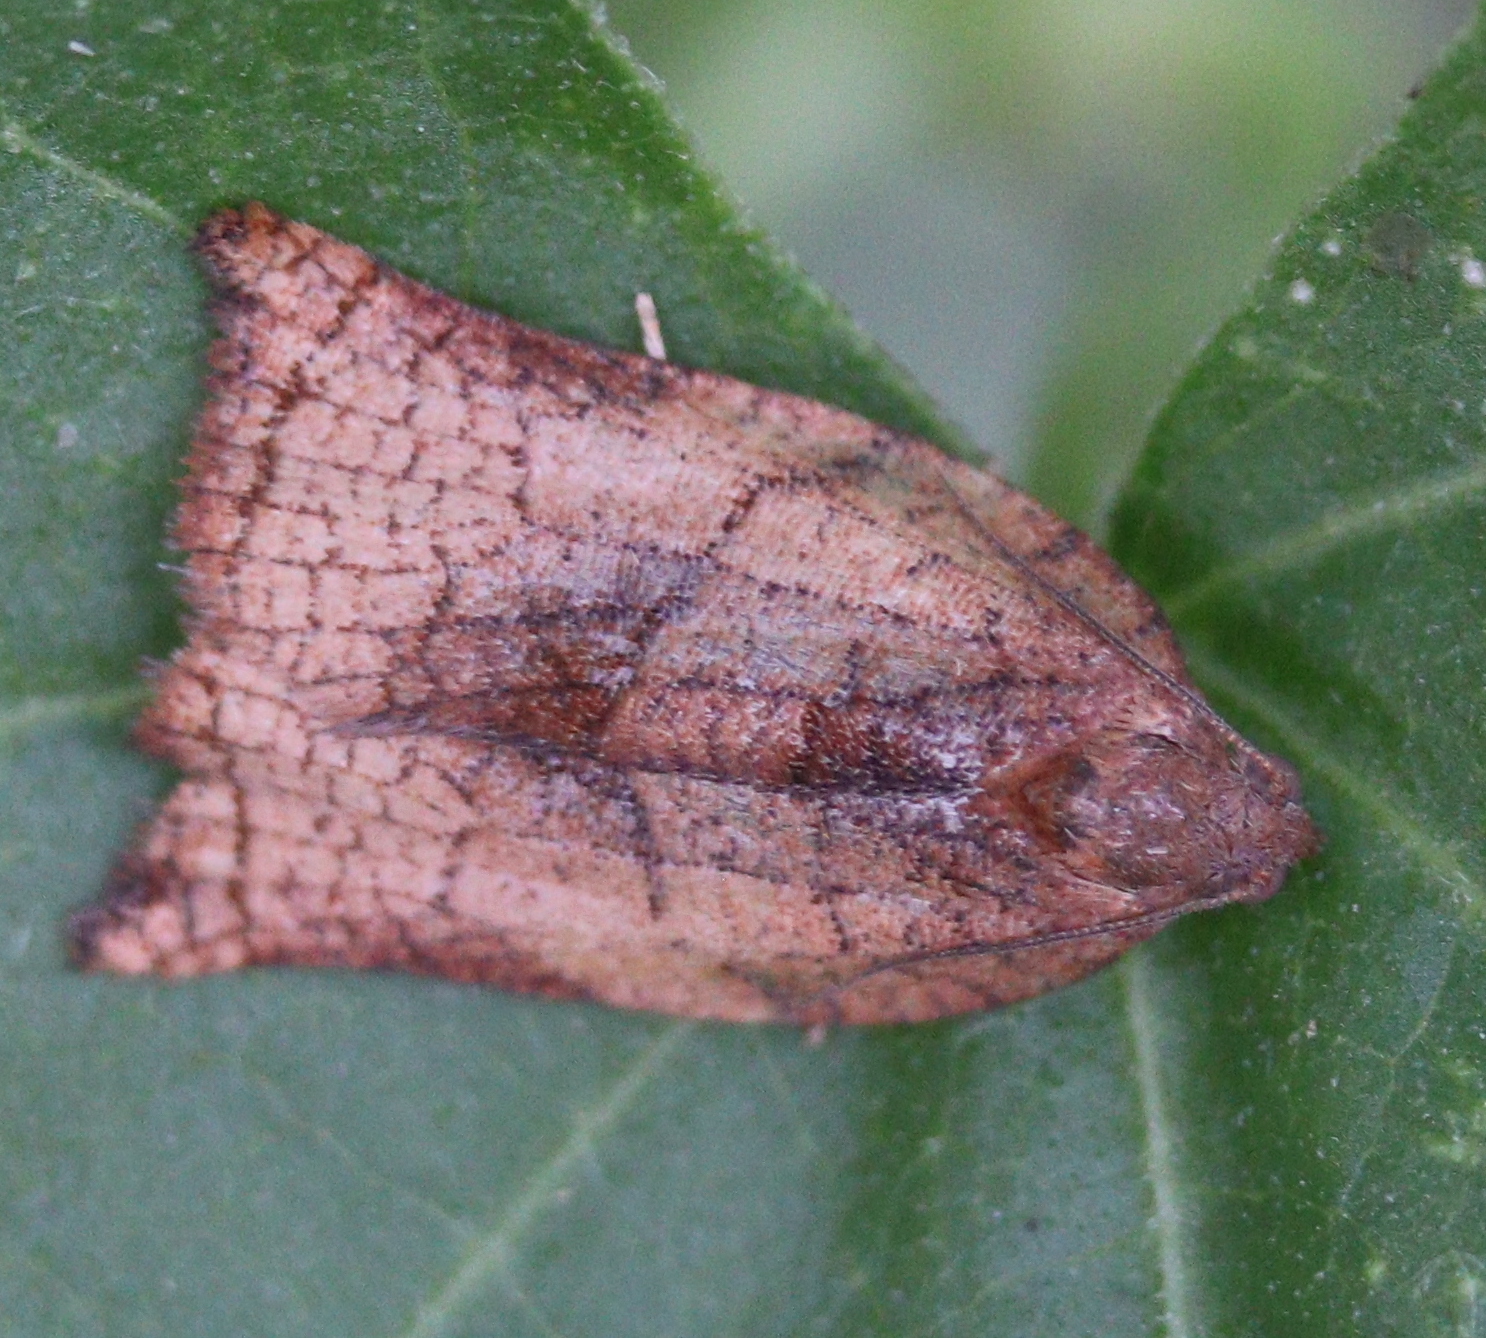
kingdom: Animalia
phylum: Arthropoda
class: Insecta
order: Lepidoptera
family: Tortricidae
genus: Archips
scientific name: Archips podana
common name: Large fruit-tree tortrix
